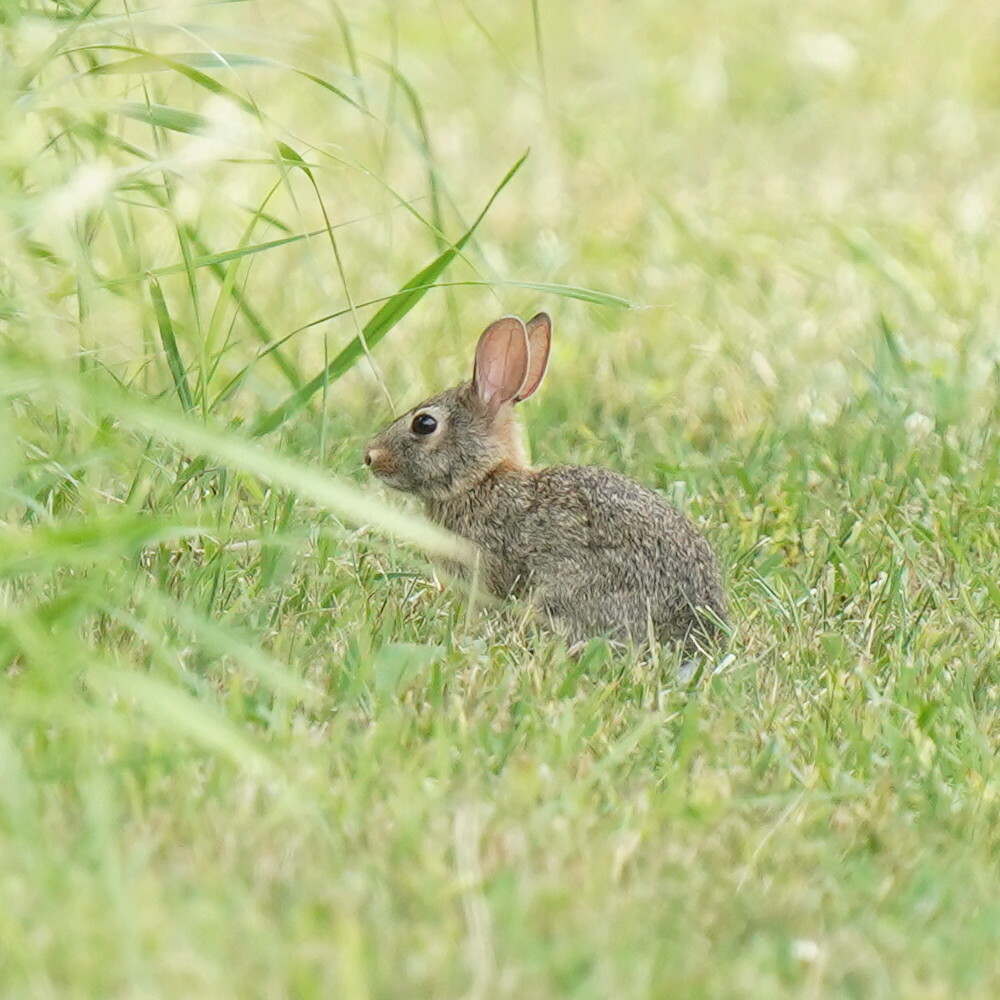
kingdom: Animalia
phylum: Chordata
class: Mammalia
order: Lagomorpha
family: Leporidae
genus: Sylvilagus
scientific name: Sylvilagus floridanus
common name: Eastern cottontail
